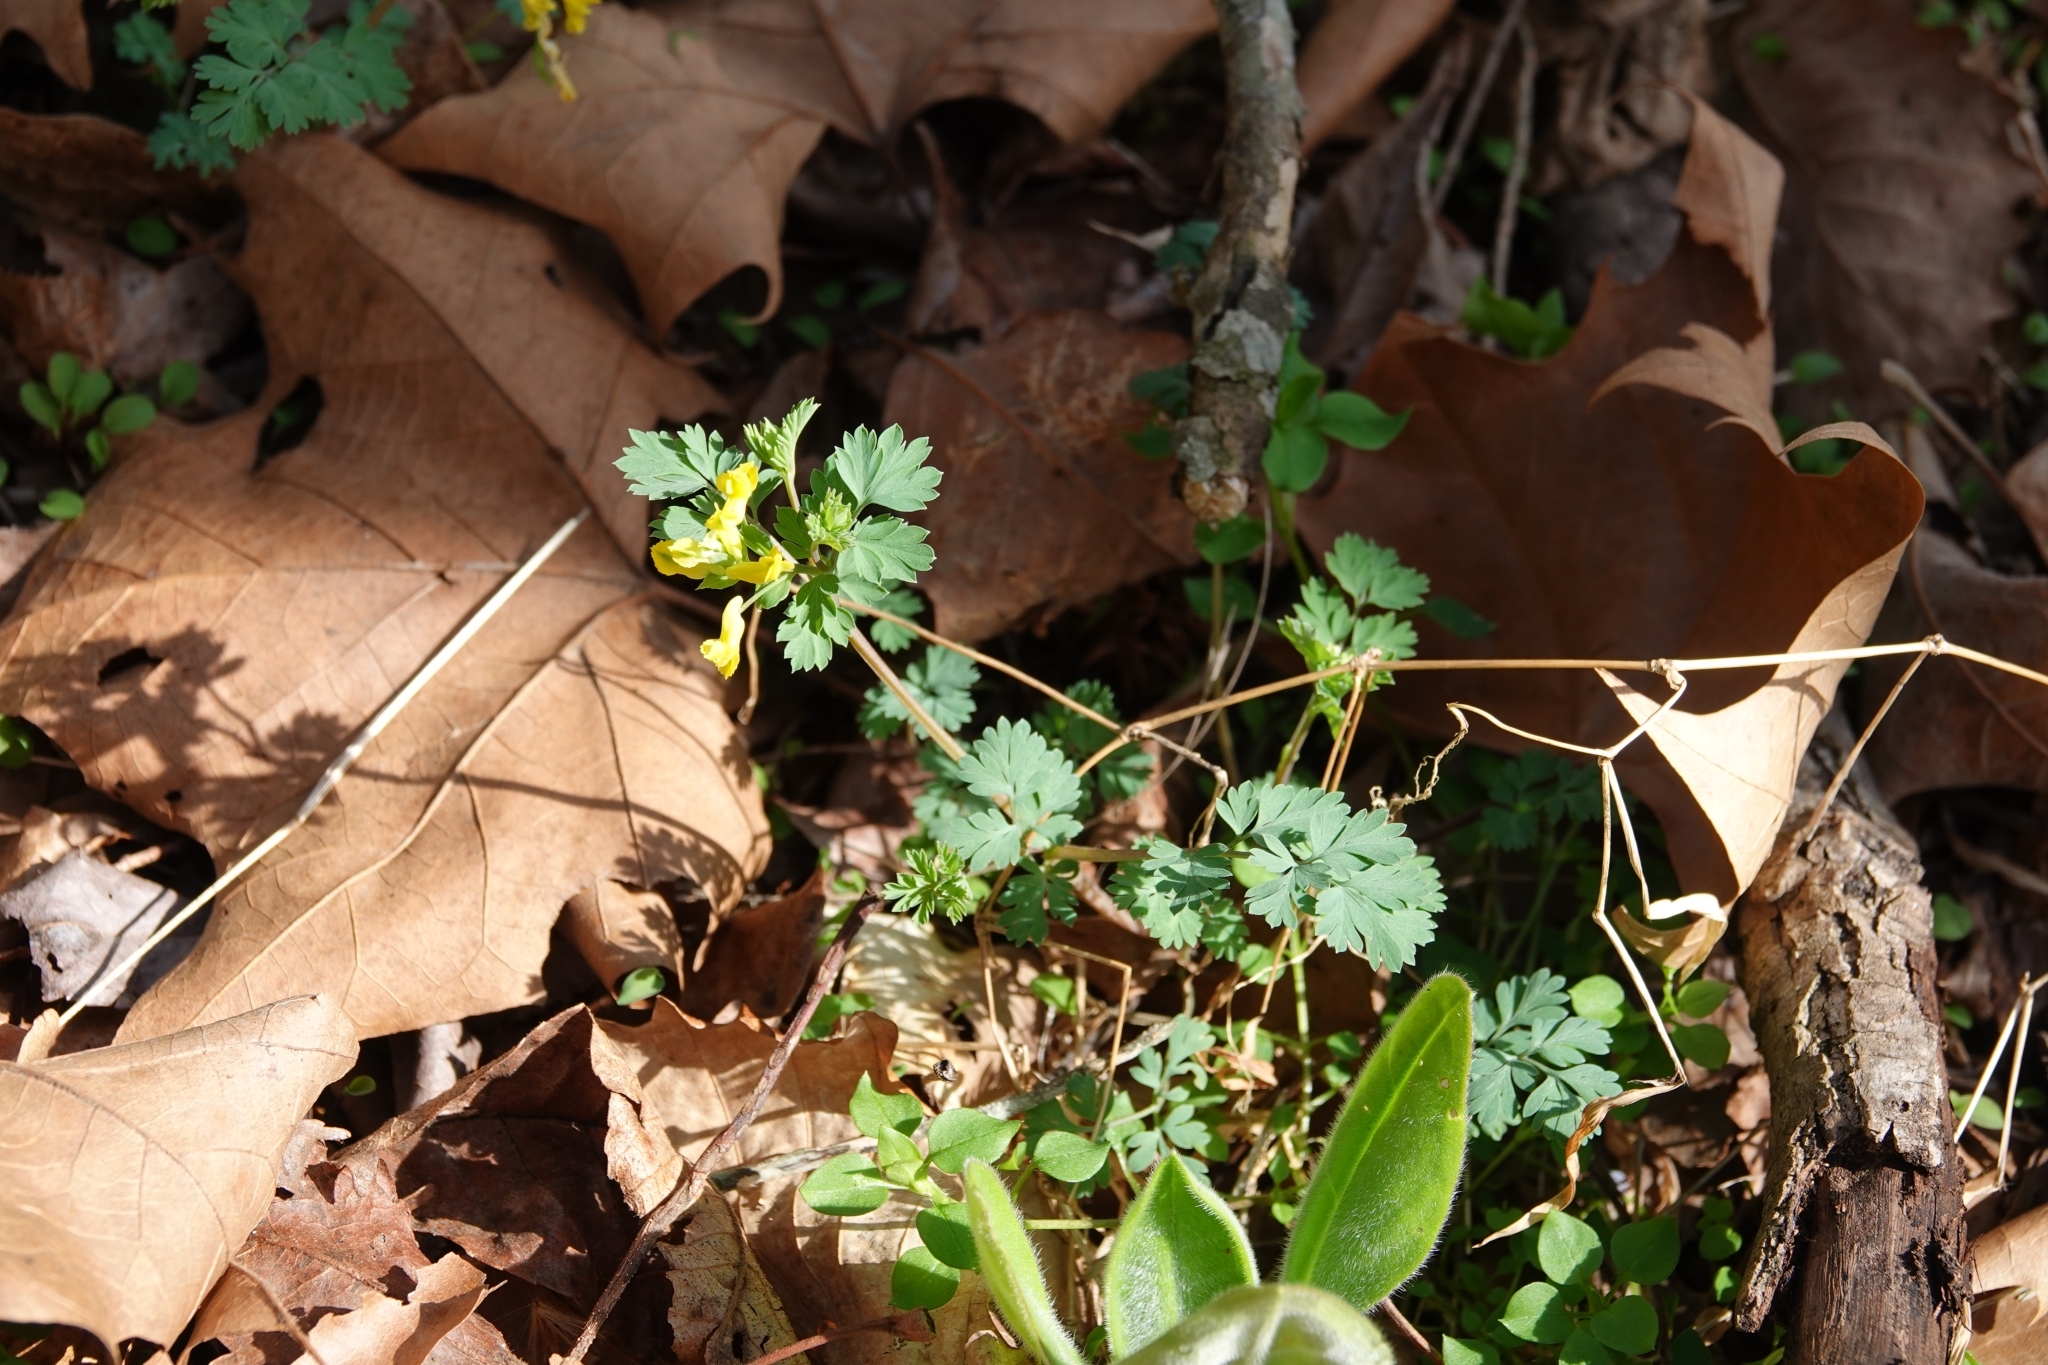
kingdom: Plantae
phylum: Tracheophyta
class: Magnoliopsida
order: Ranunculales
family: Papaveraceae
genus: Corydalis
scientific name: Corydalis flavula
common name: Yellow corydalis
